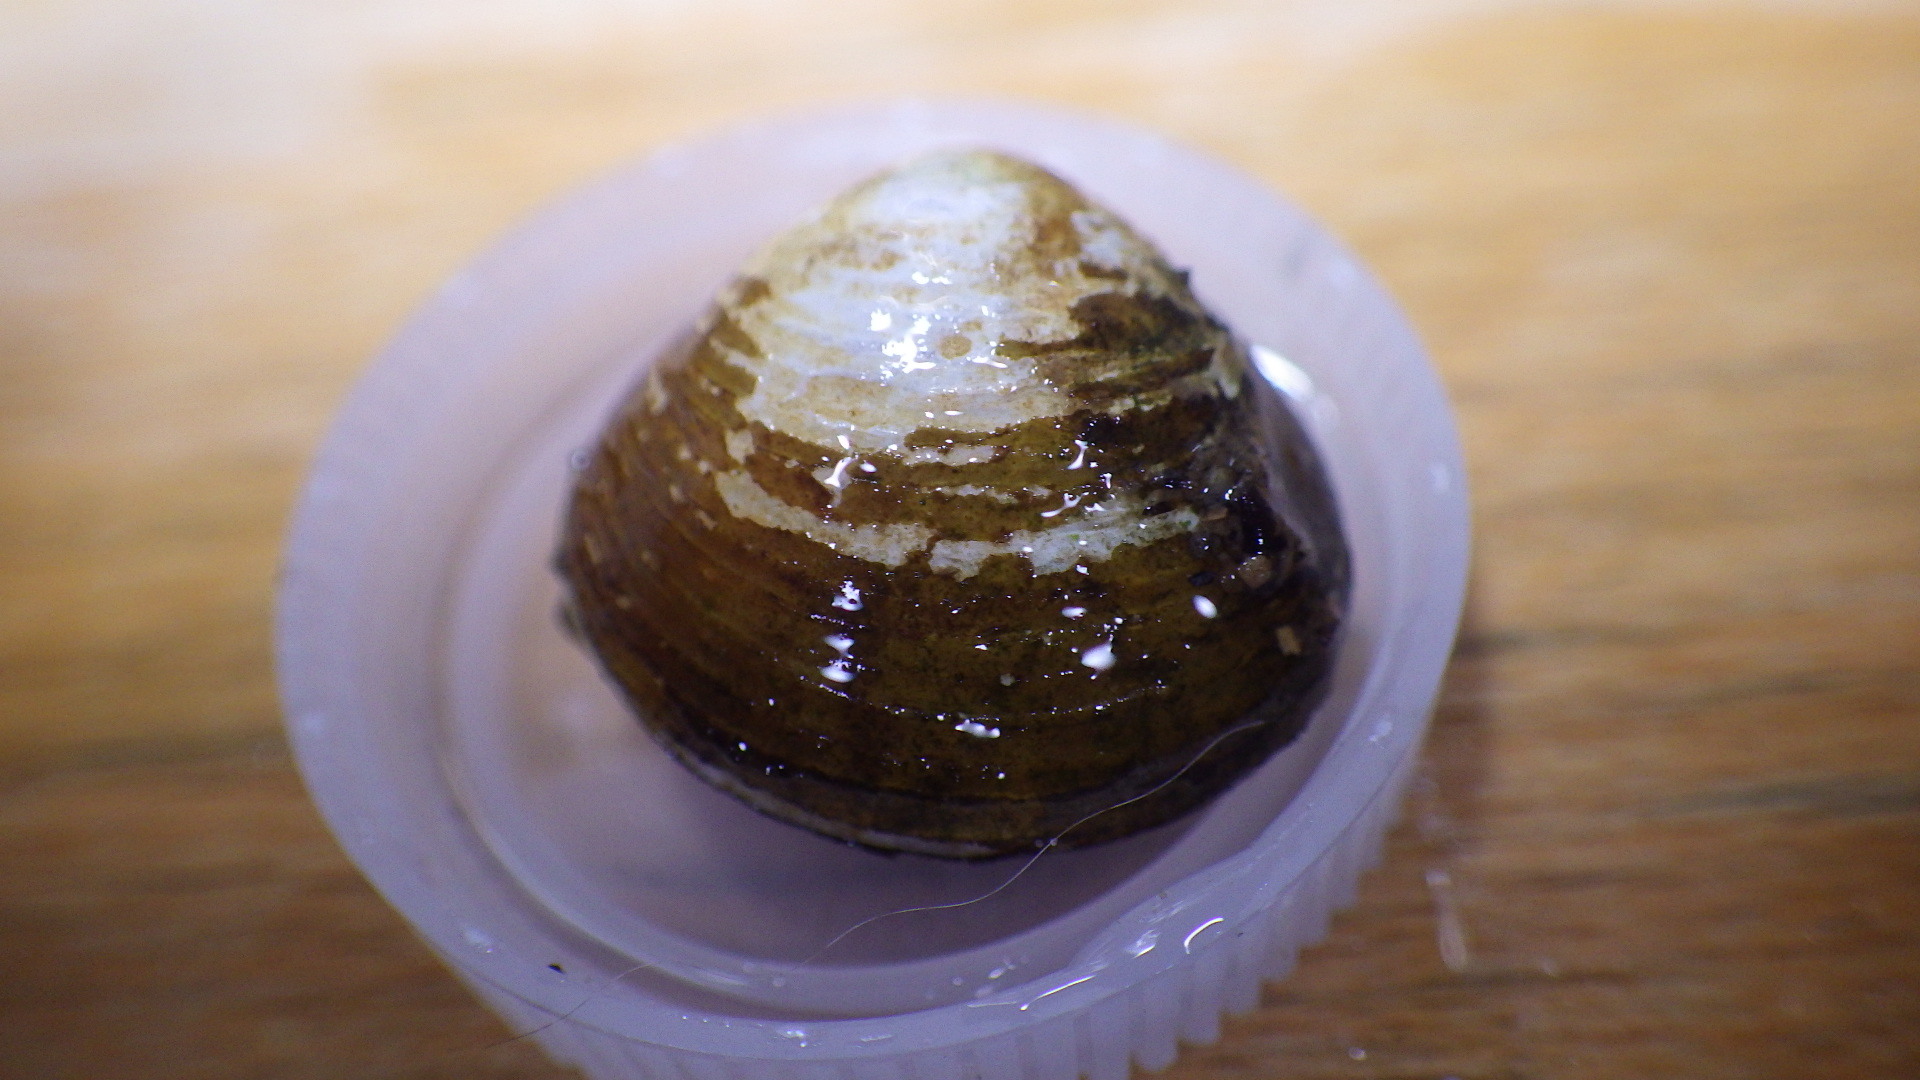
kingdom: Animalia
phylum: Mollusca
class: Bivalvia
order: Venerida
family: Cyrenidae
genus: Corbicula
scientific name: Corbicula fluminea
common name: Asian clam
